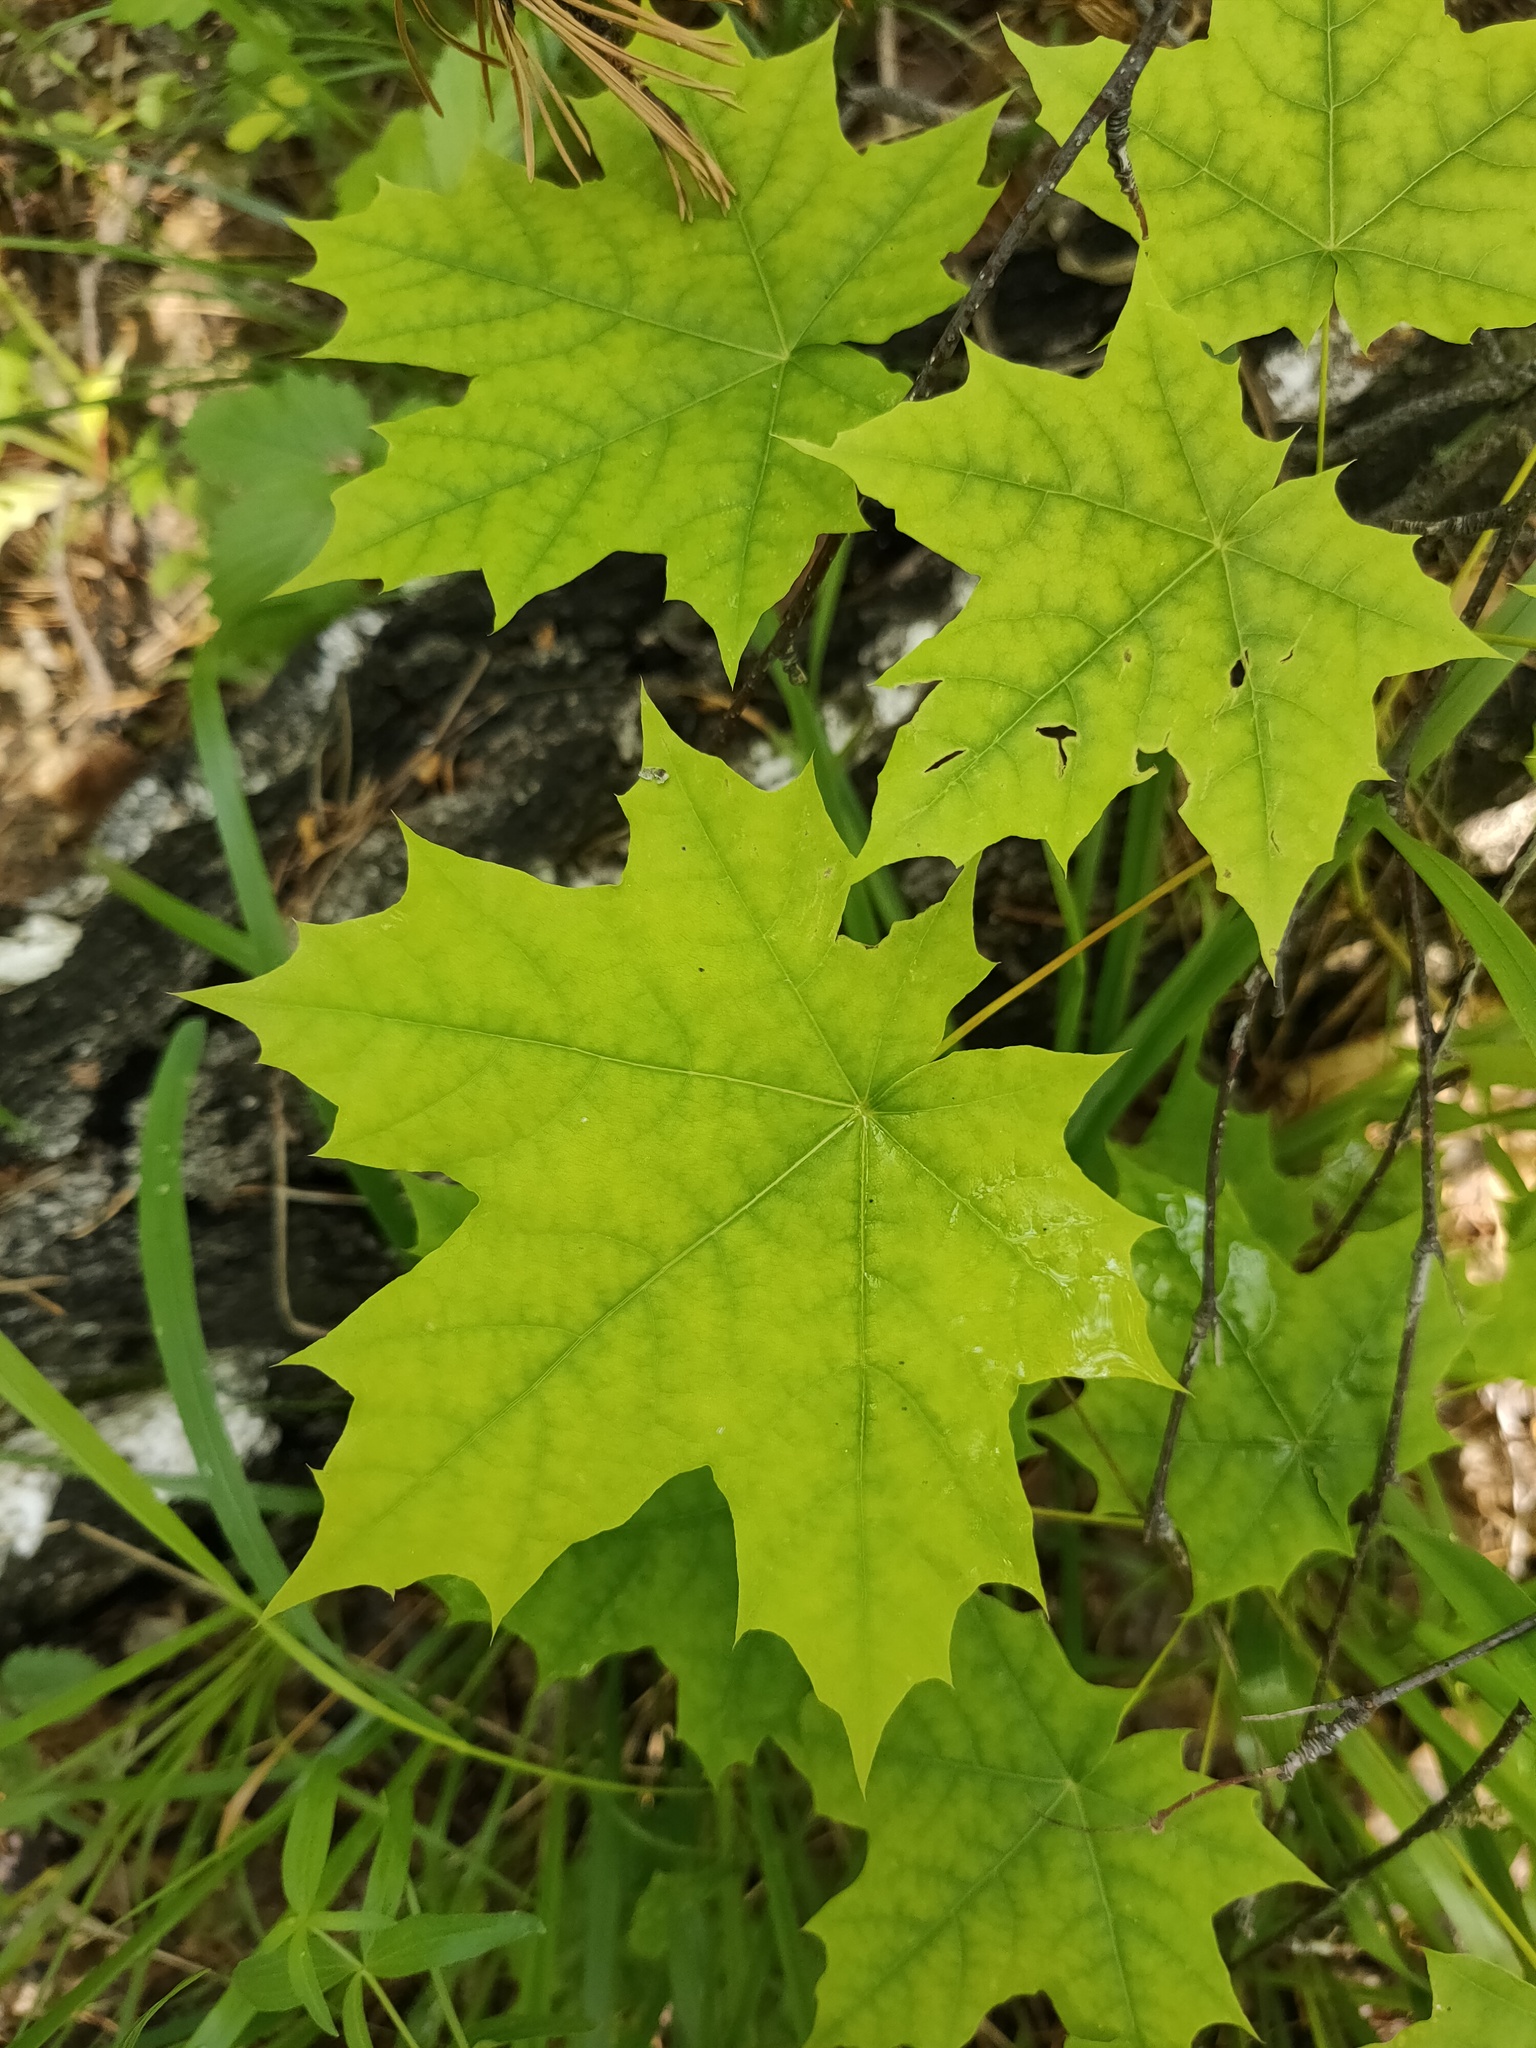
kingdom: Plantae
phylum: Tracheophyta
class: Magnoliopsida
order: Sapindales
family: Sapindaceae
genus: Acer
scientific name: Acer platanoides
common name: Norway maple
